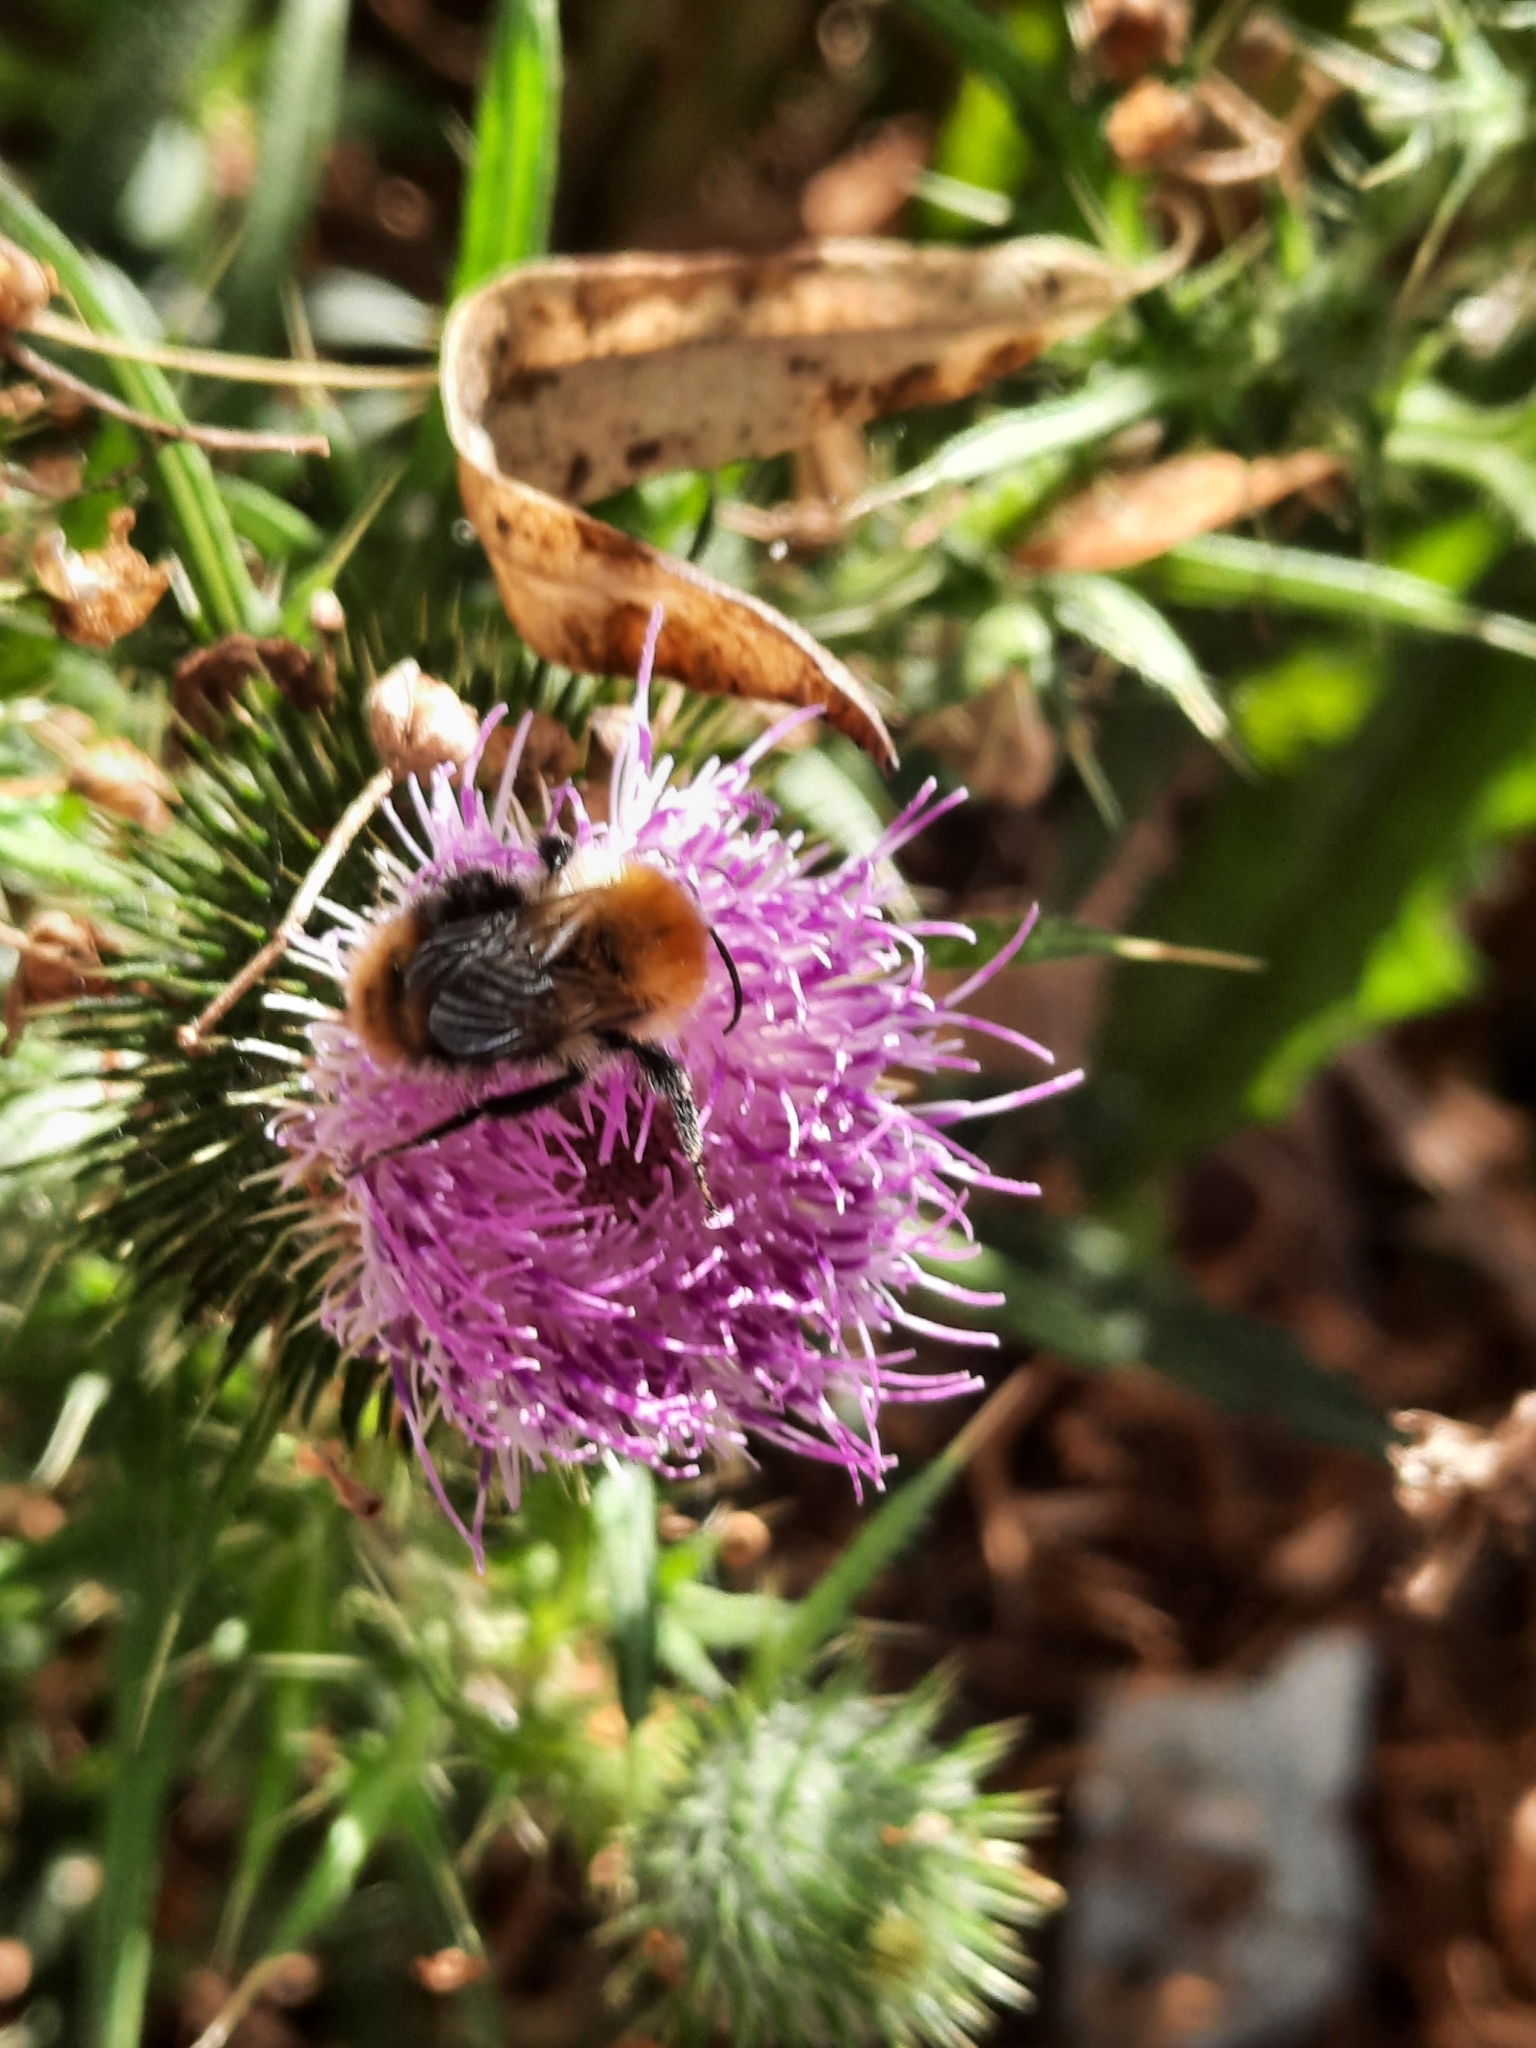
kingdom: Animalia
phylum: Arthropoda
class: Insecta
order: Hymenoptera
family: Apidae
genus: Bombus
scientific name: Bombus pascuorum
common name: Common carder bee
